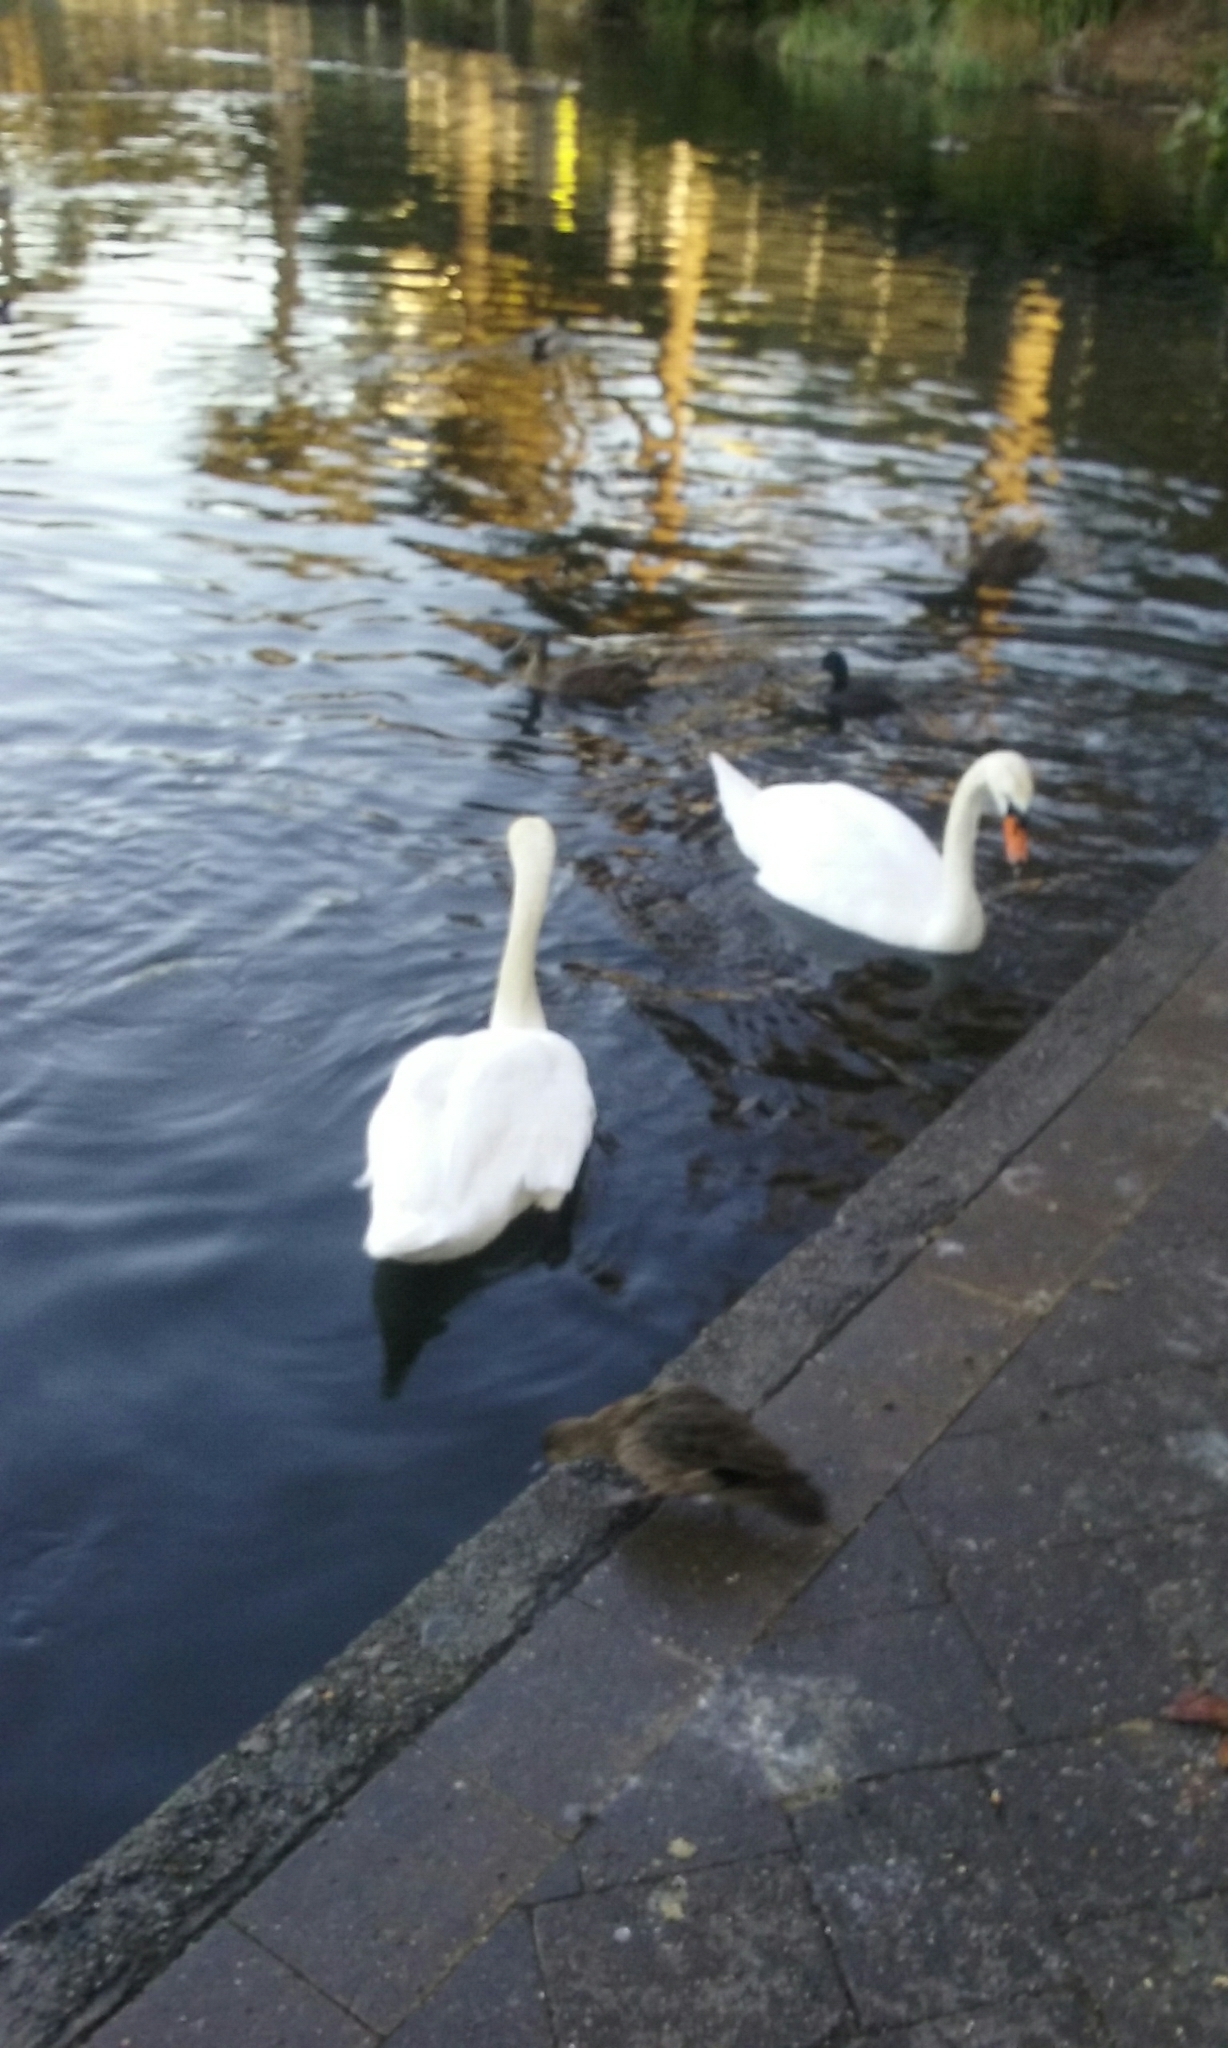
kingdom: Animalia
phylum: Chordata
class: Aves
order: Anseriformes
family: Anatidae
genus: Cygnus
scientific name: Cygnus olor
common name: Mute swan
